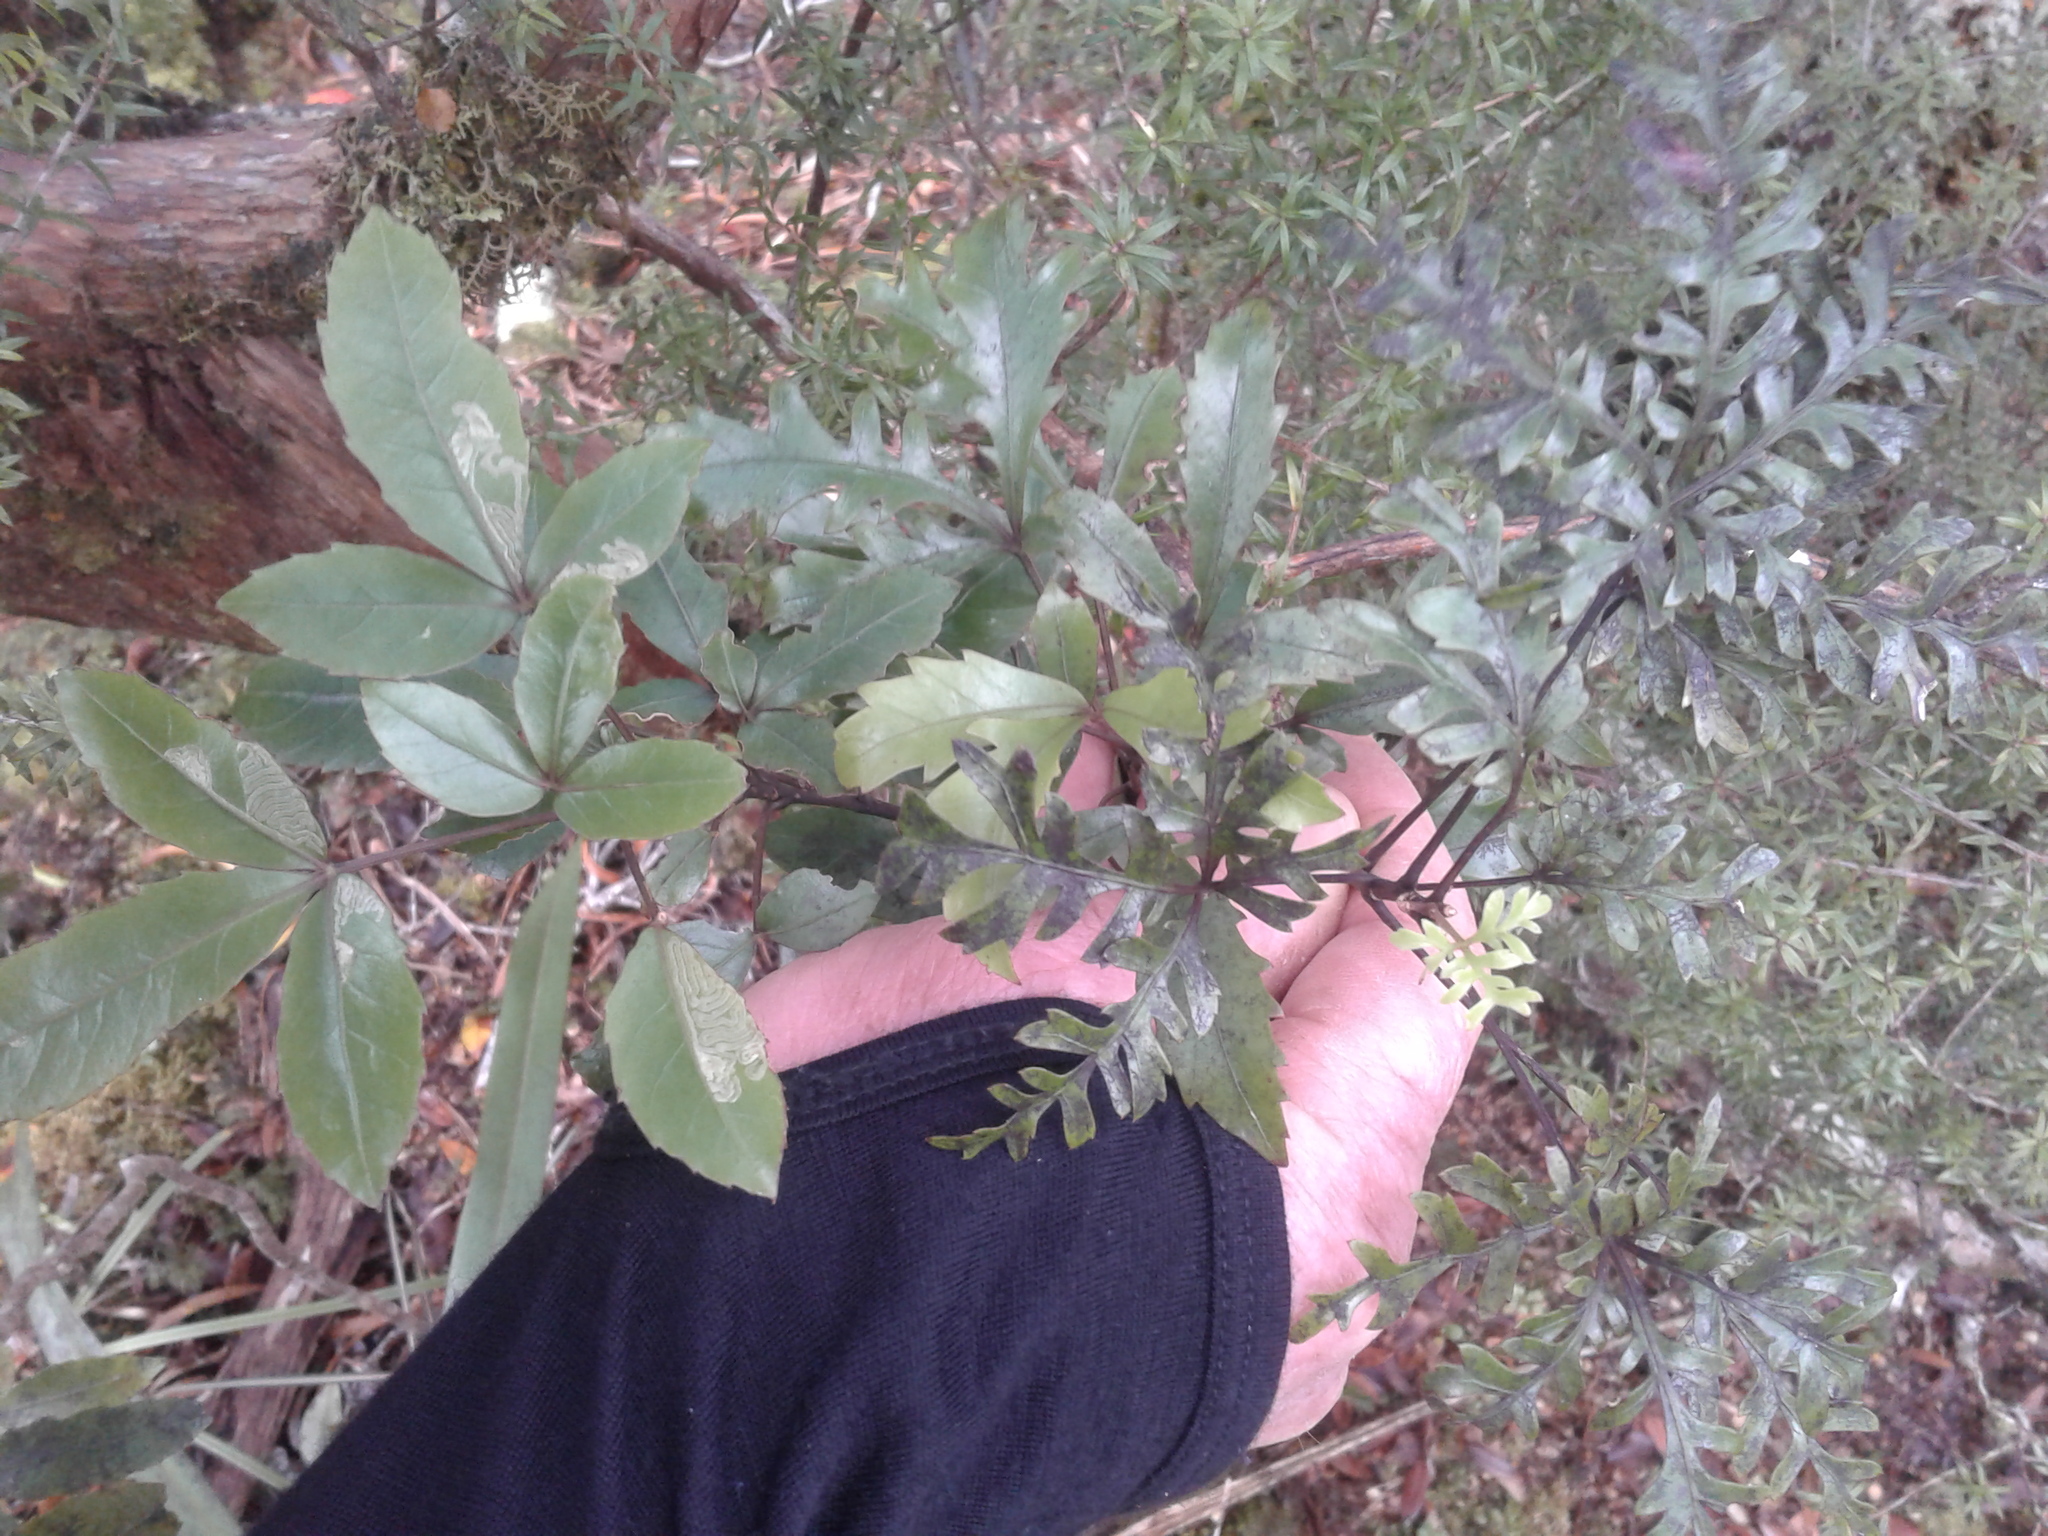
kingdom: Plantae
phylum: Tracheophyta
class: Magnoliopsida
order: Apiales
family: Araliaceae
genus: Raukaua
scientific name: Raukaua simplex
